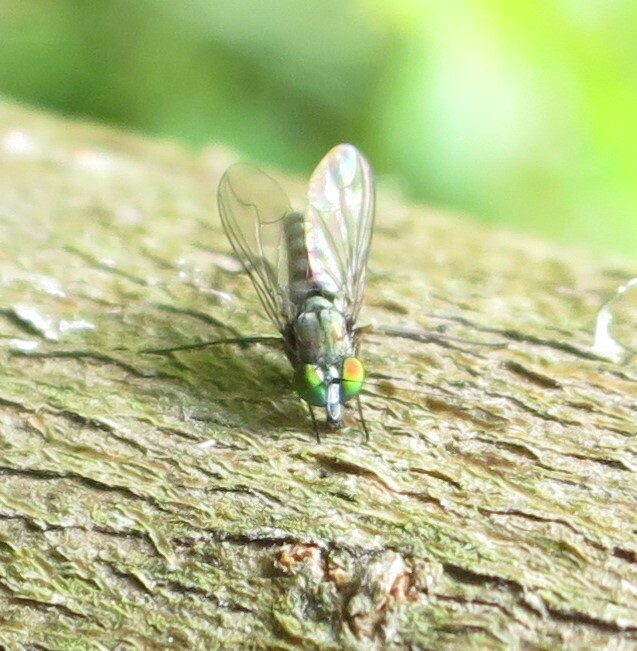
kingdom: Animalia
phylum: Arthropoda
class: Insecta
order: Diptera
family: Dolichopodidae
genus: Parentia
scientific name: Parentia restricta
